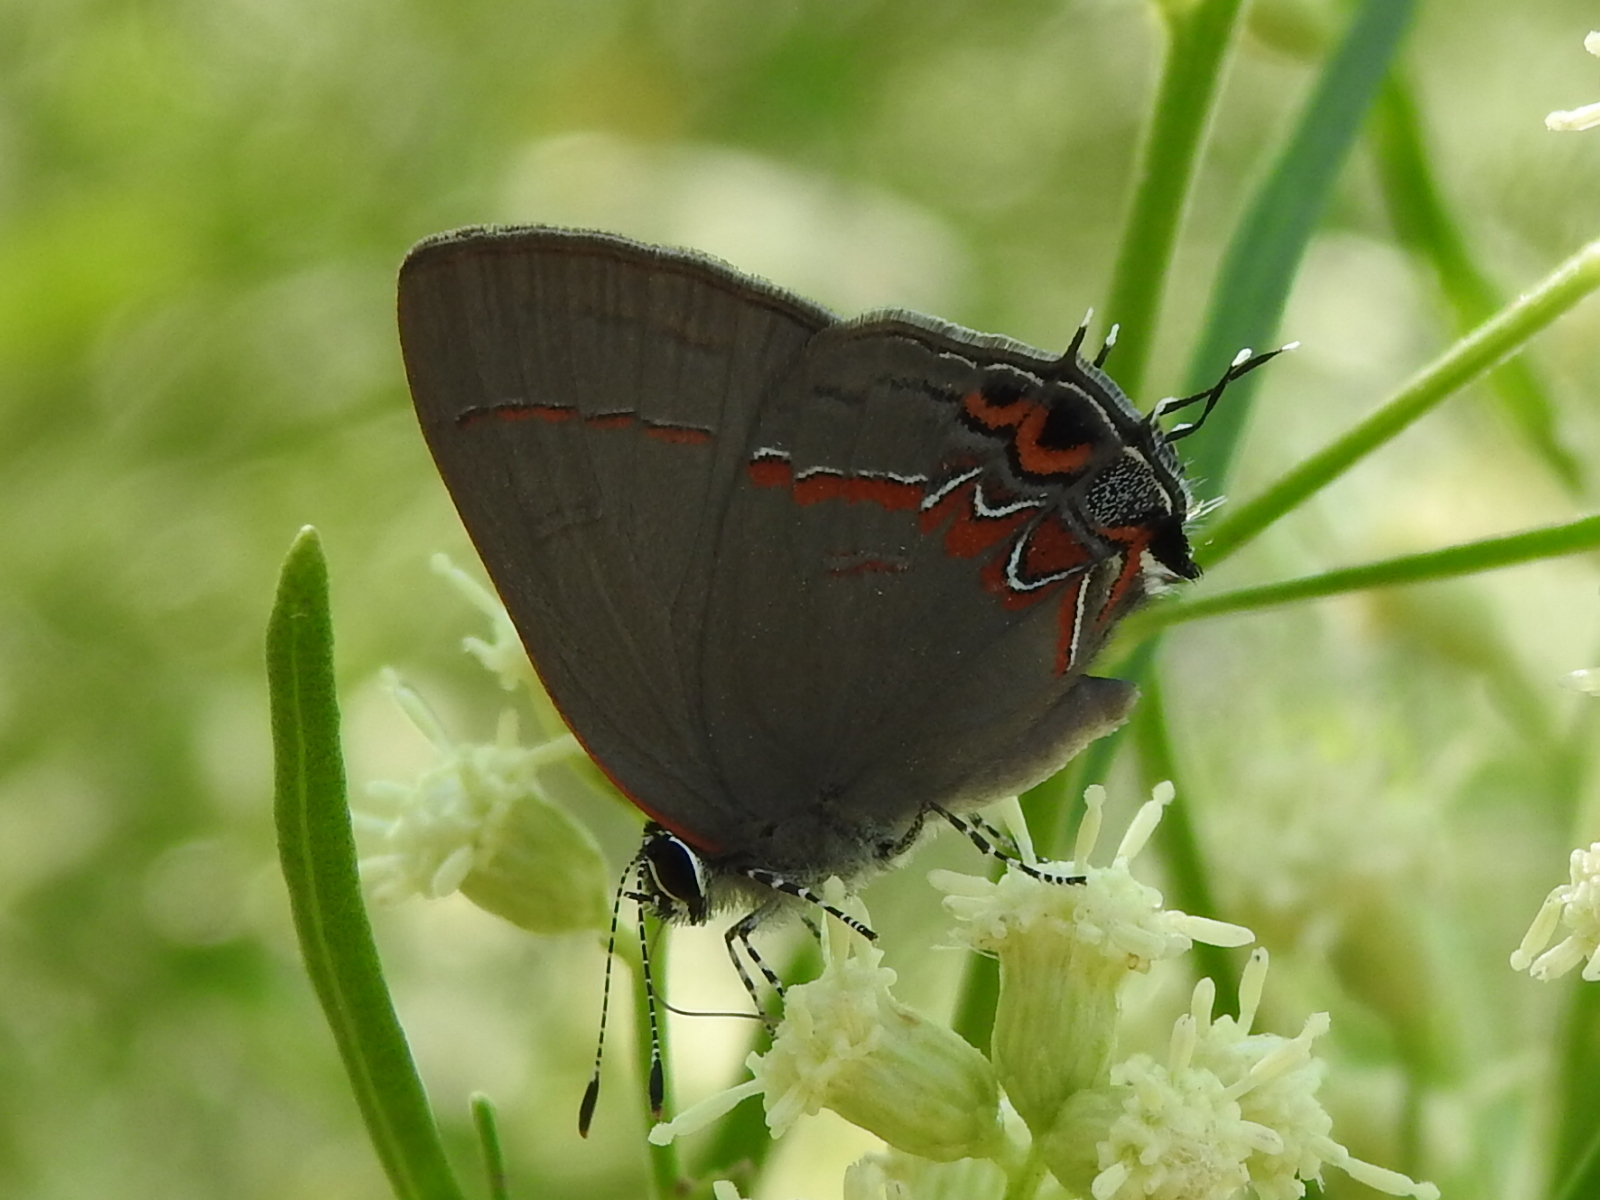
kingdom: Animalia
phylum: Arthropoda
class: Insecta
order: Lepidoptera
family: Lycaenidae
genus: Calycopis
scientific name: Calycopis isobeon
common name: Dusky-blue groundstreak
